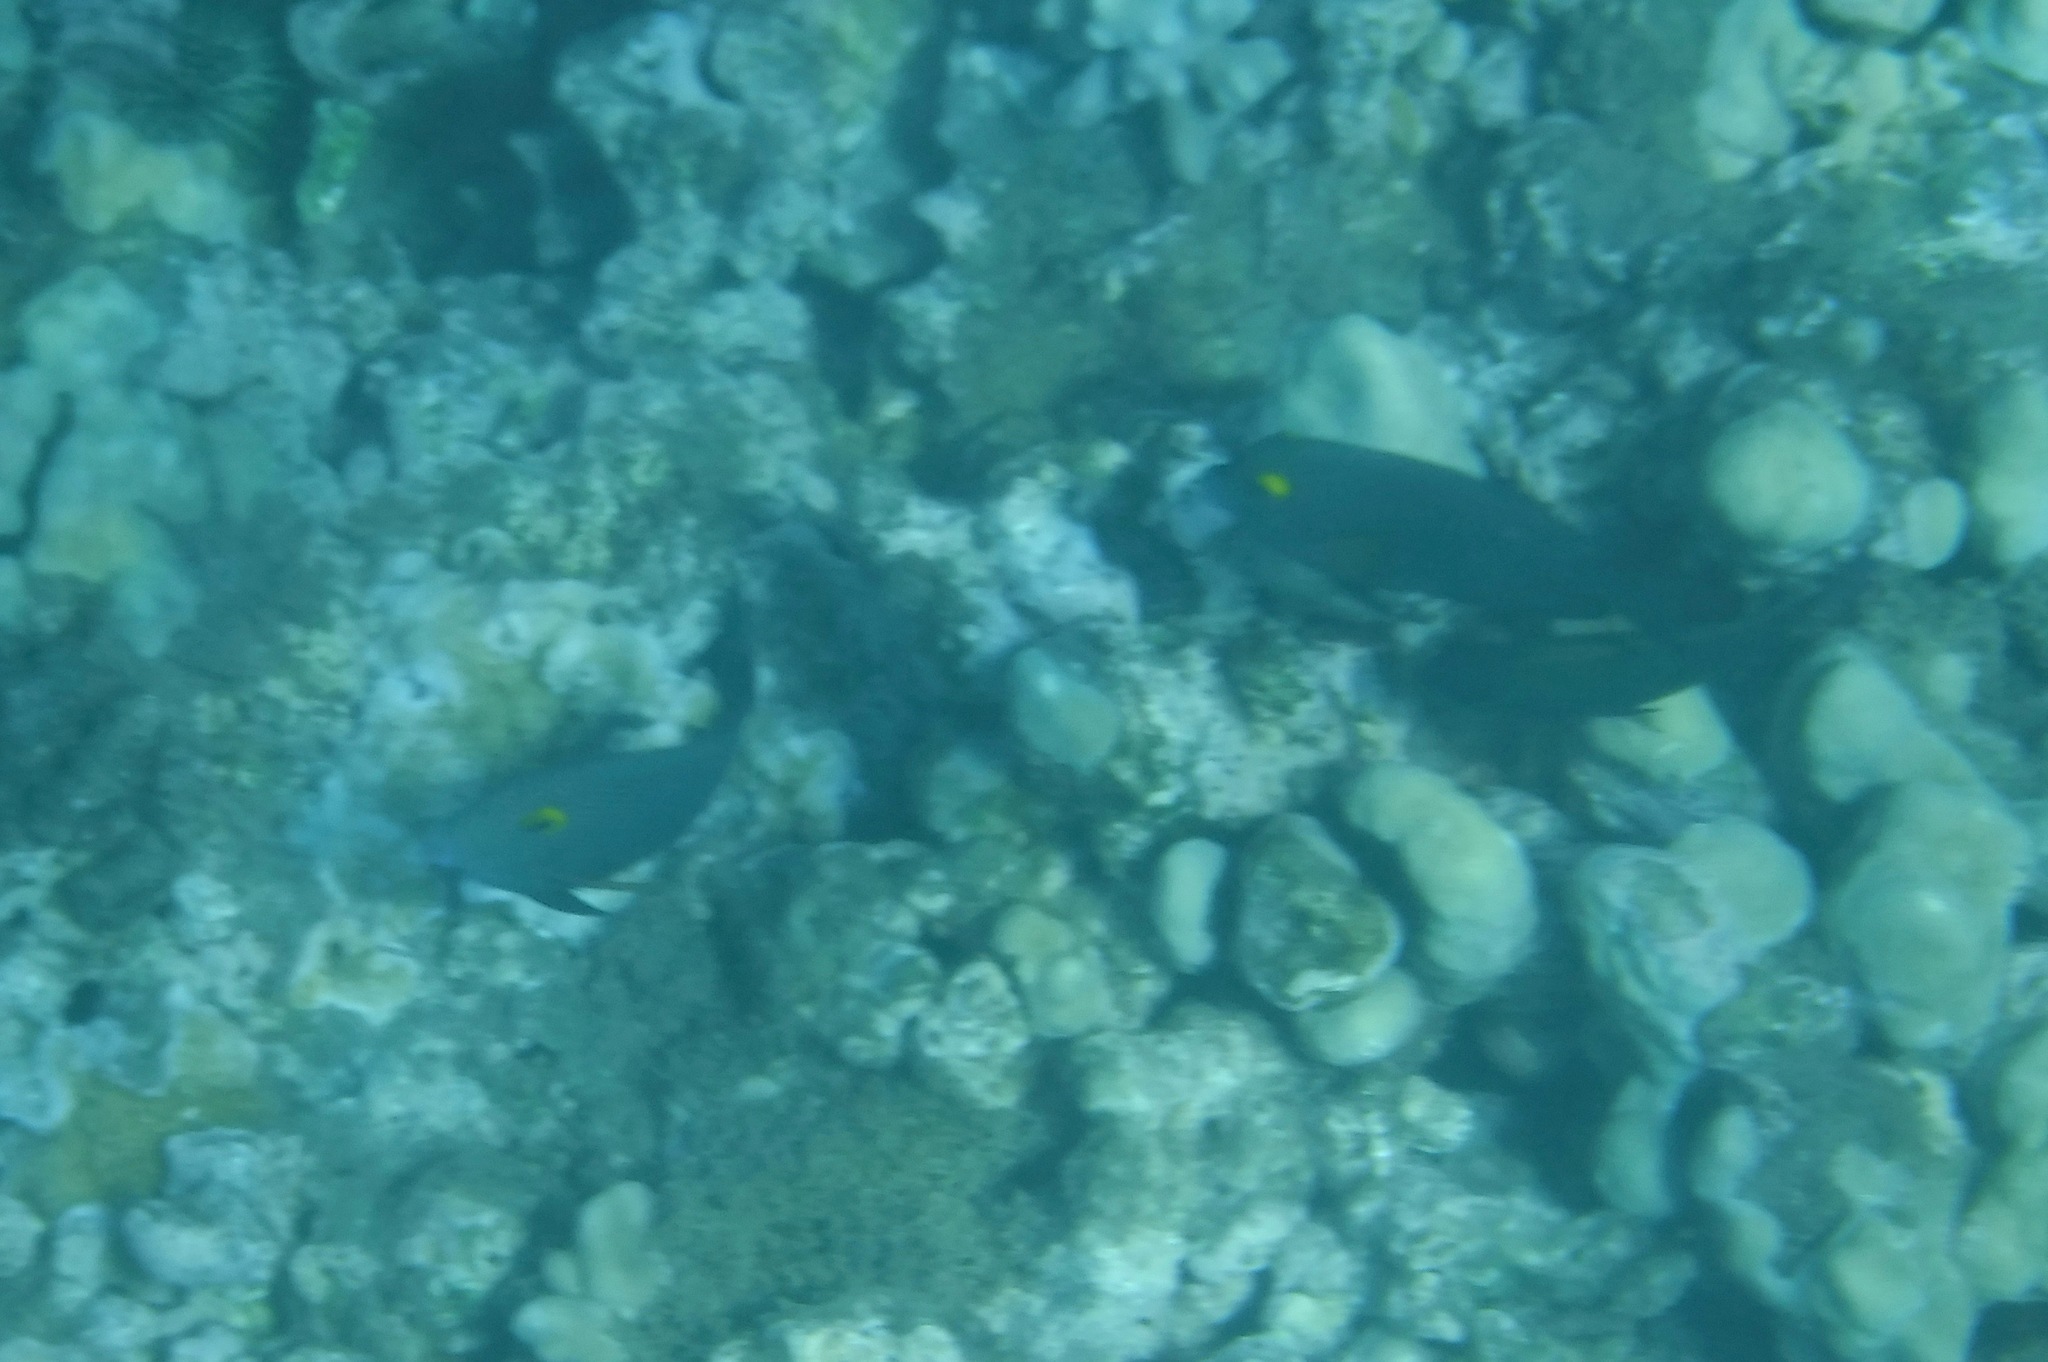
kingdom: Animalia
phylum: Chordata
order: Perciformes
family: Acanthuridae
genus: Ctenochaetus
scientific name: Ctenochaetus strigosus
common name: Bristletoothed surgeonfish
